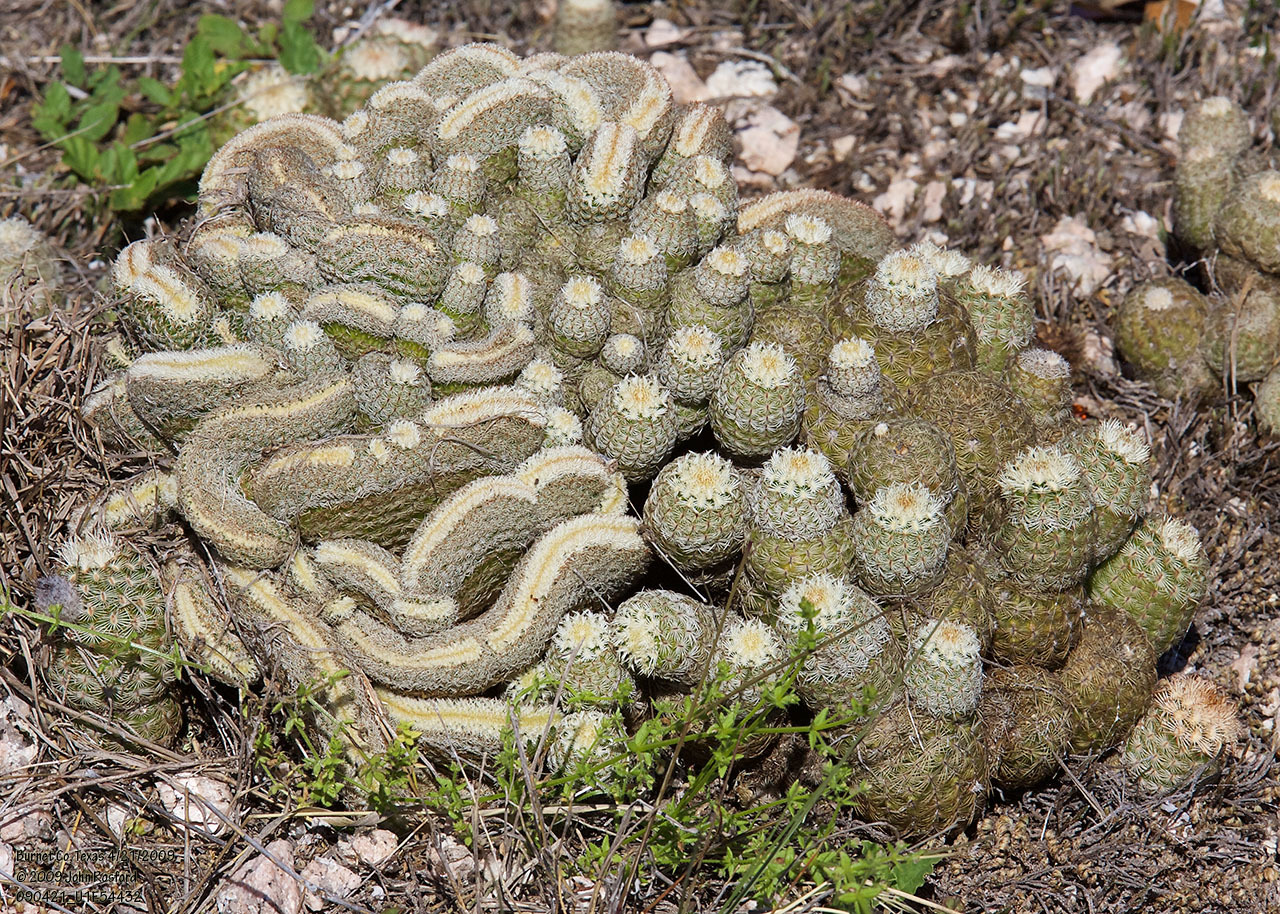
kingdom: Plantae
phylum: Tracheophyta
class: Magnoliopsida
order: Caryophyllales
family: Cactaceae
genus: Echinocereus
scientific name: Echinocereus reichenbachii
